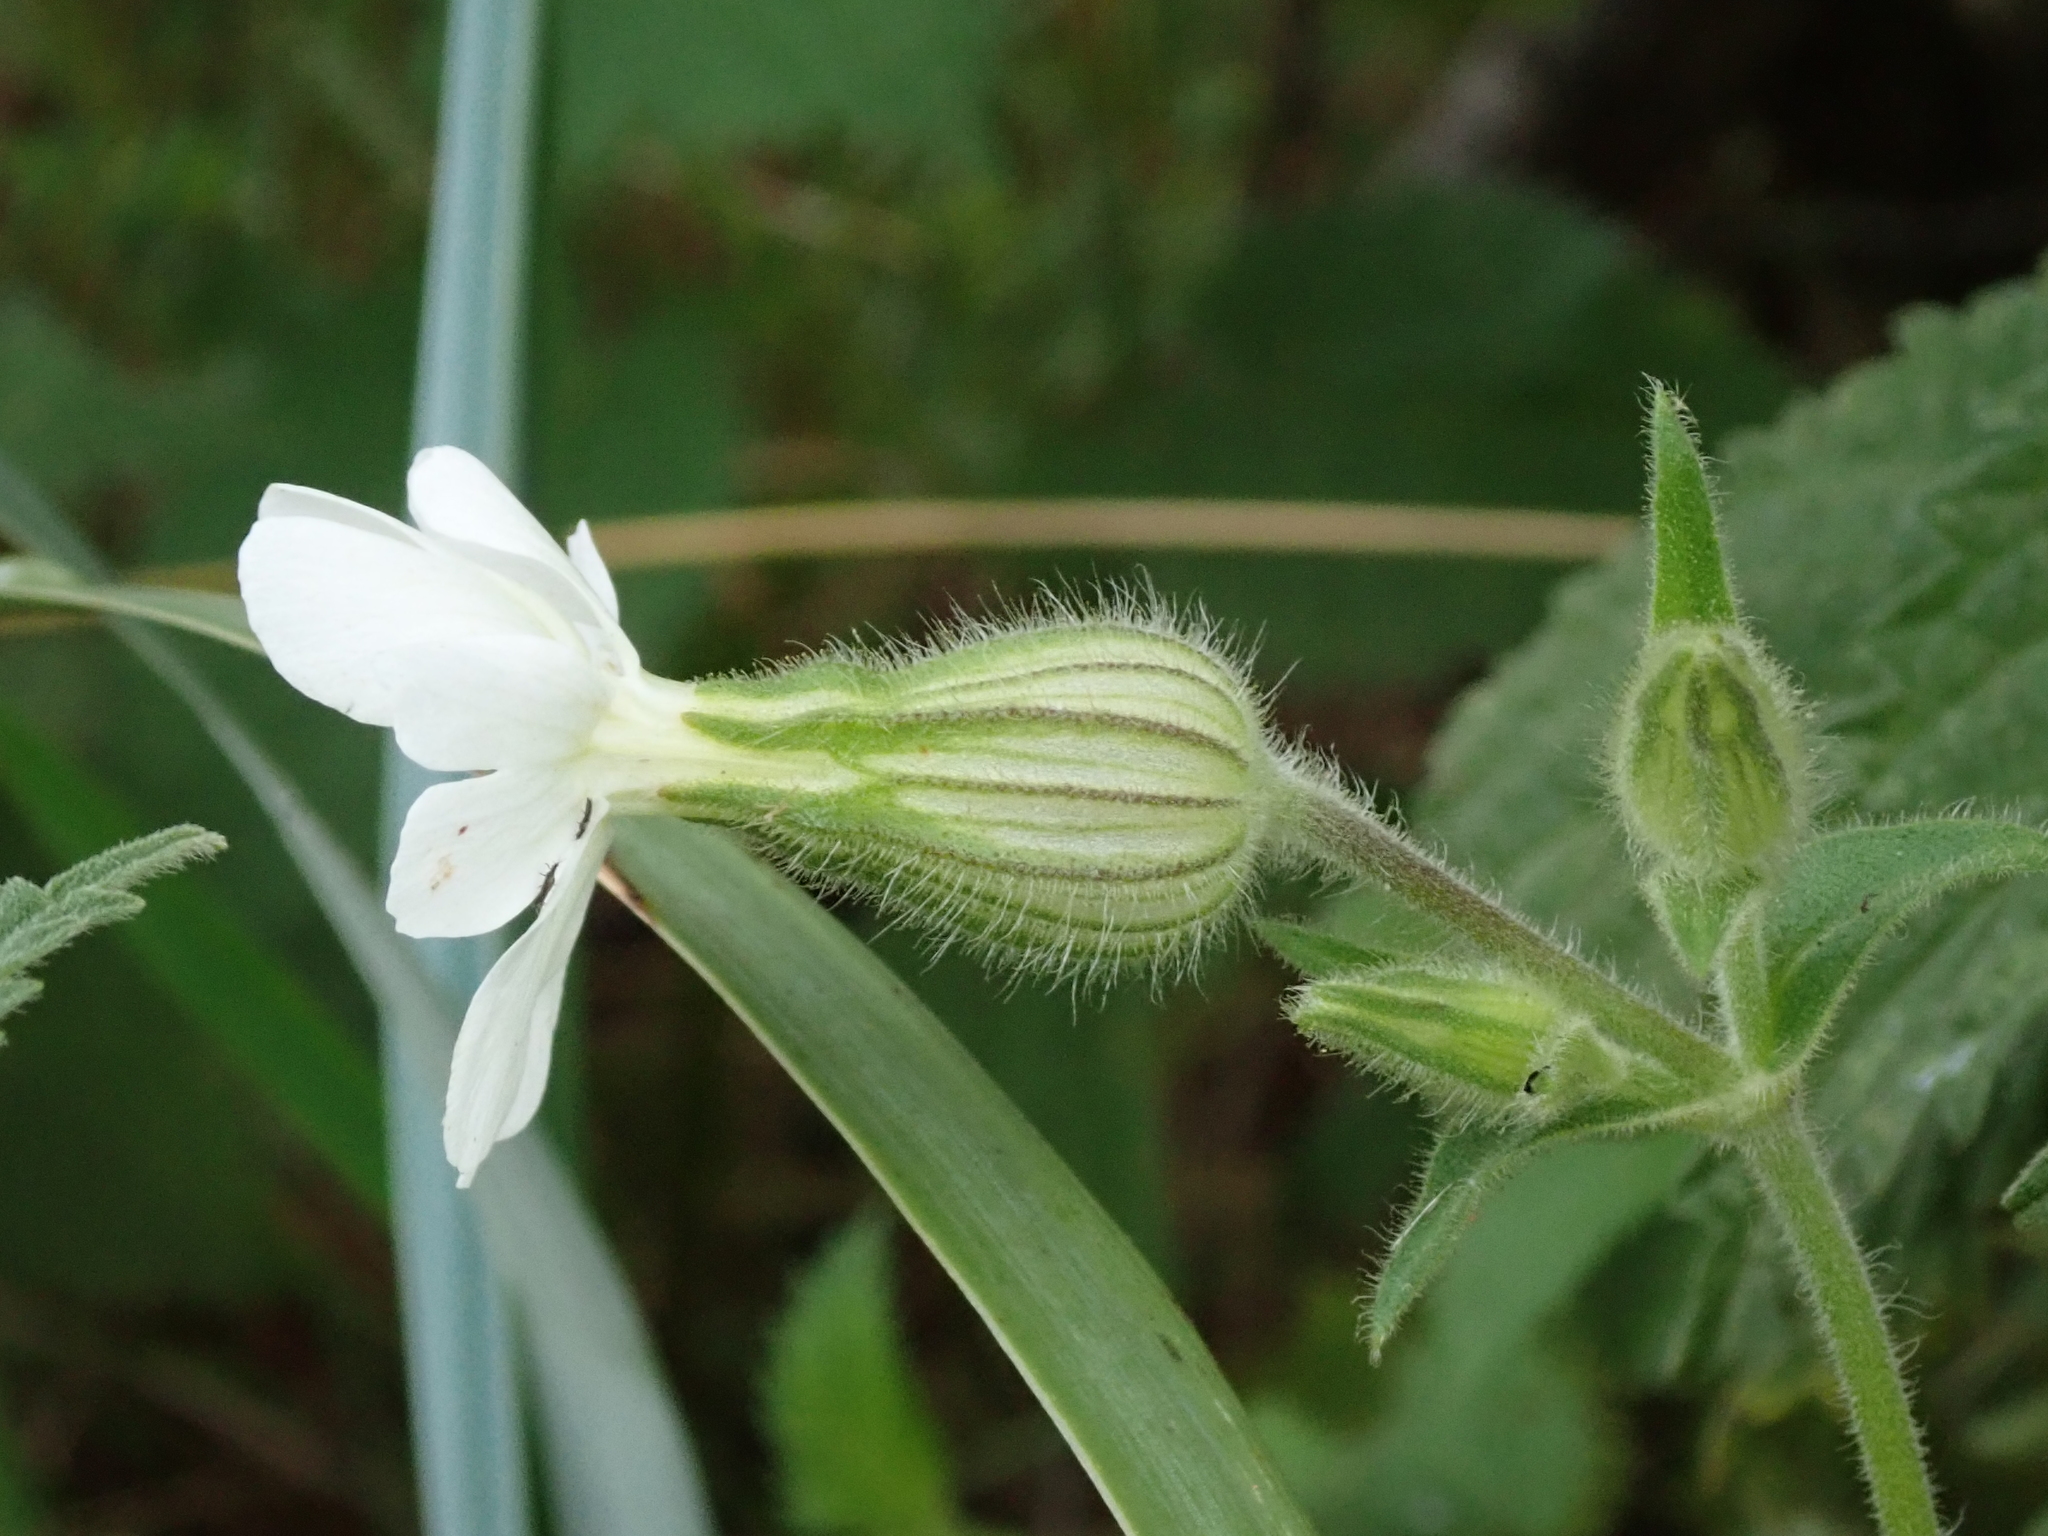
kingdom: Plantae
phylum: Tracheophyta
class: Magnoliopsida
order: Caryophyllales
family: Caryophyllaceae
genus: Silene
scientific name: Silene latifolia
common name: White campion
